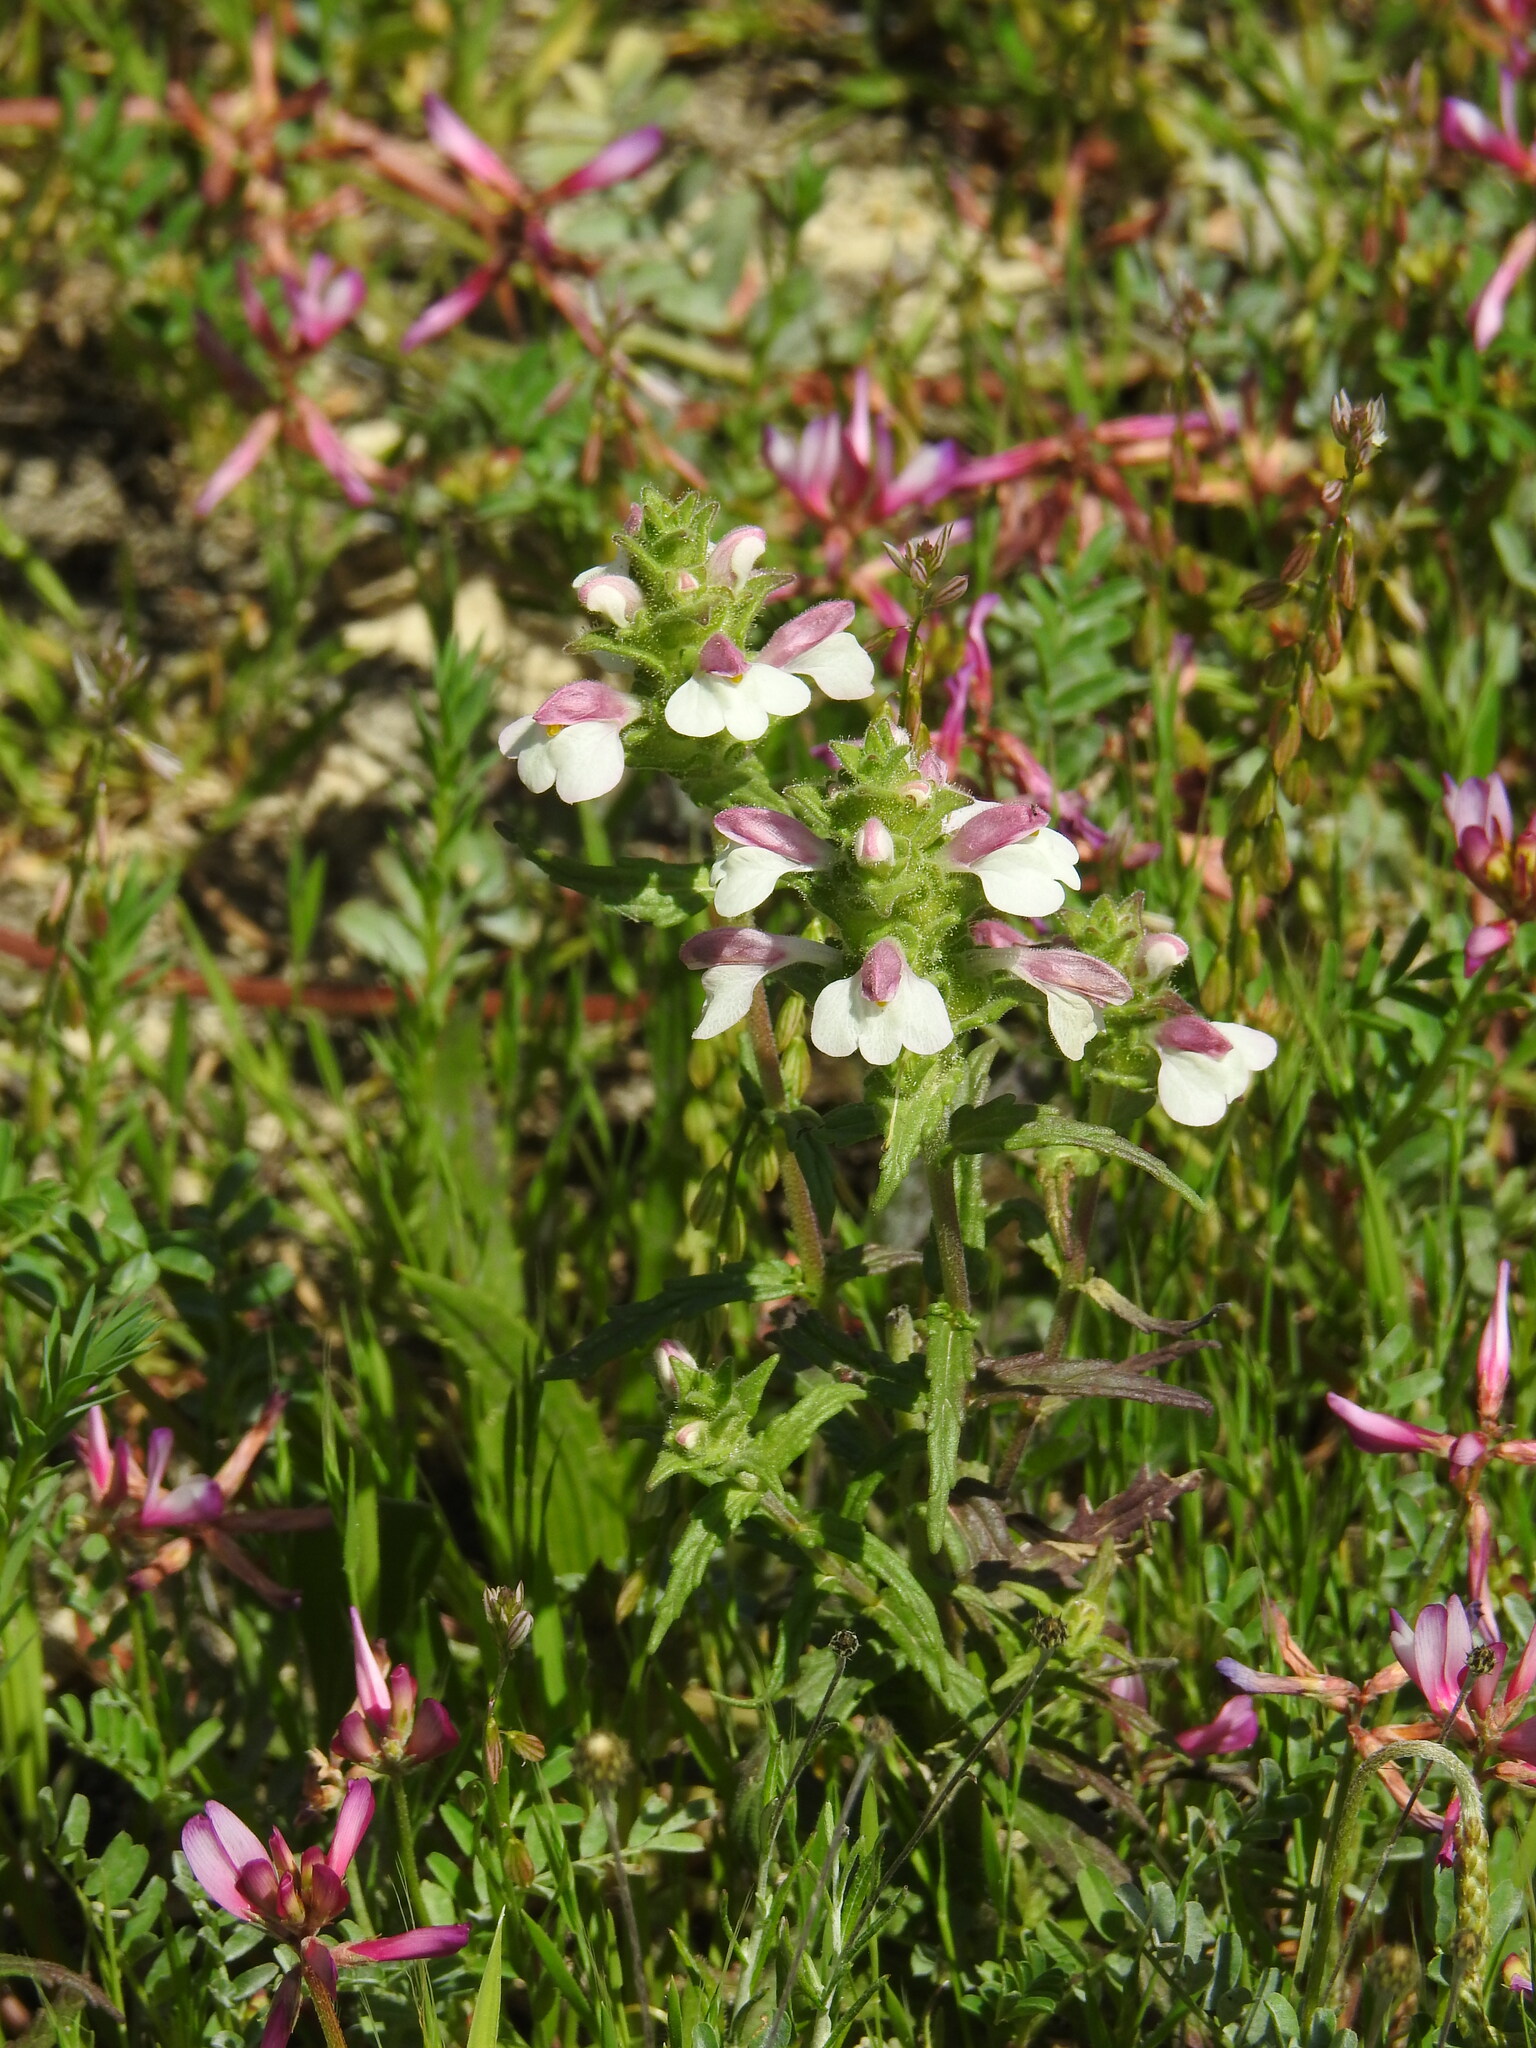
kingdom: Plantae
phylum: Tracheophyta
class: Magnoliopsida
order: Lamiales
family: Orobanchaceae
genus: Bellardia
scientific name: Bellardia trixago
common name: Mediterranean lineseed
